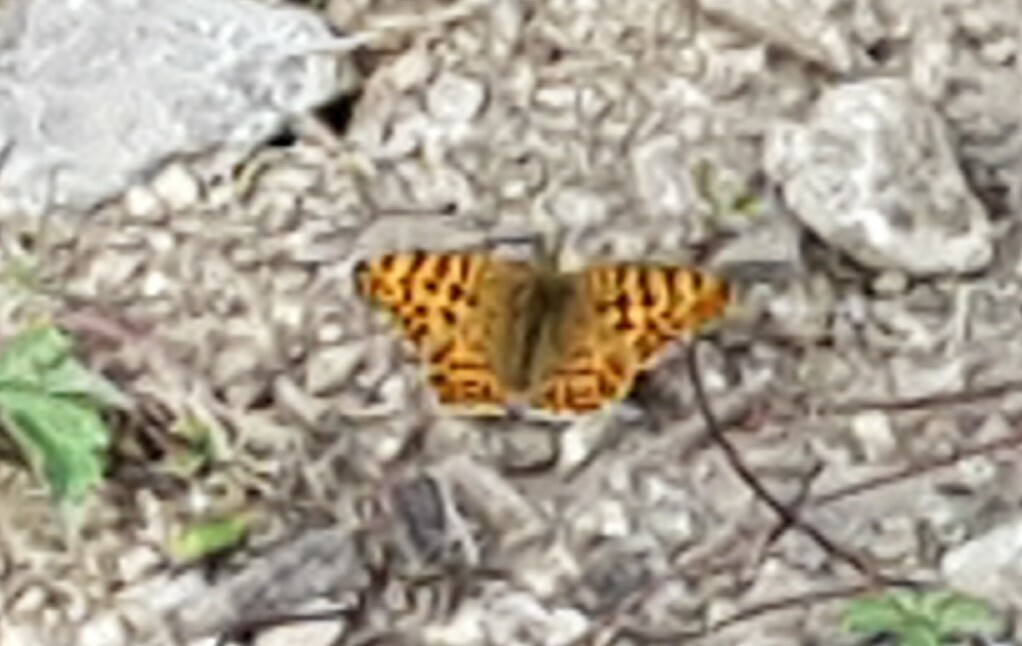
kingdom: Animalia
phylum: Arthropoda
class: Insecta
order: Lepidoptera
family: Nymphalidae
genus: Issoria
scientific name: Issoria lathonia
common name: Queen of spain fritillary
